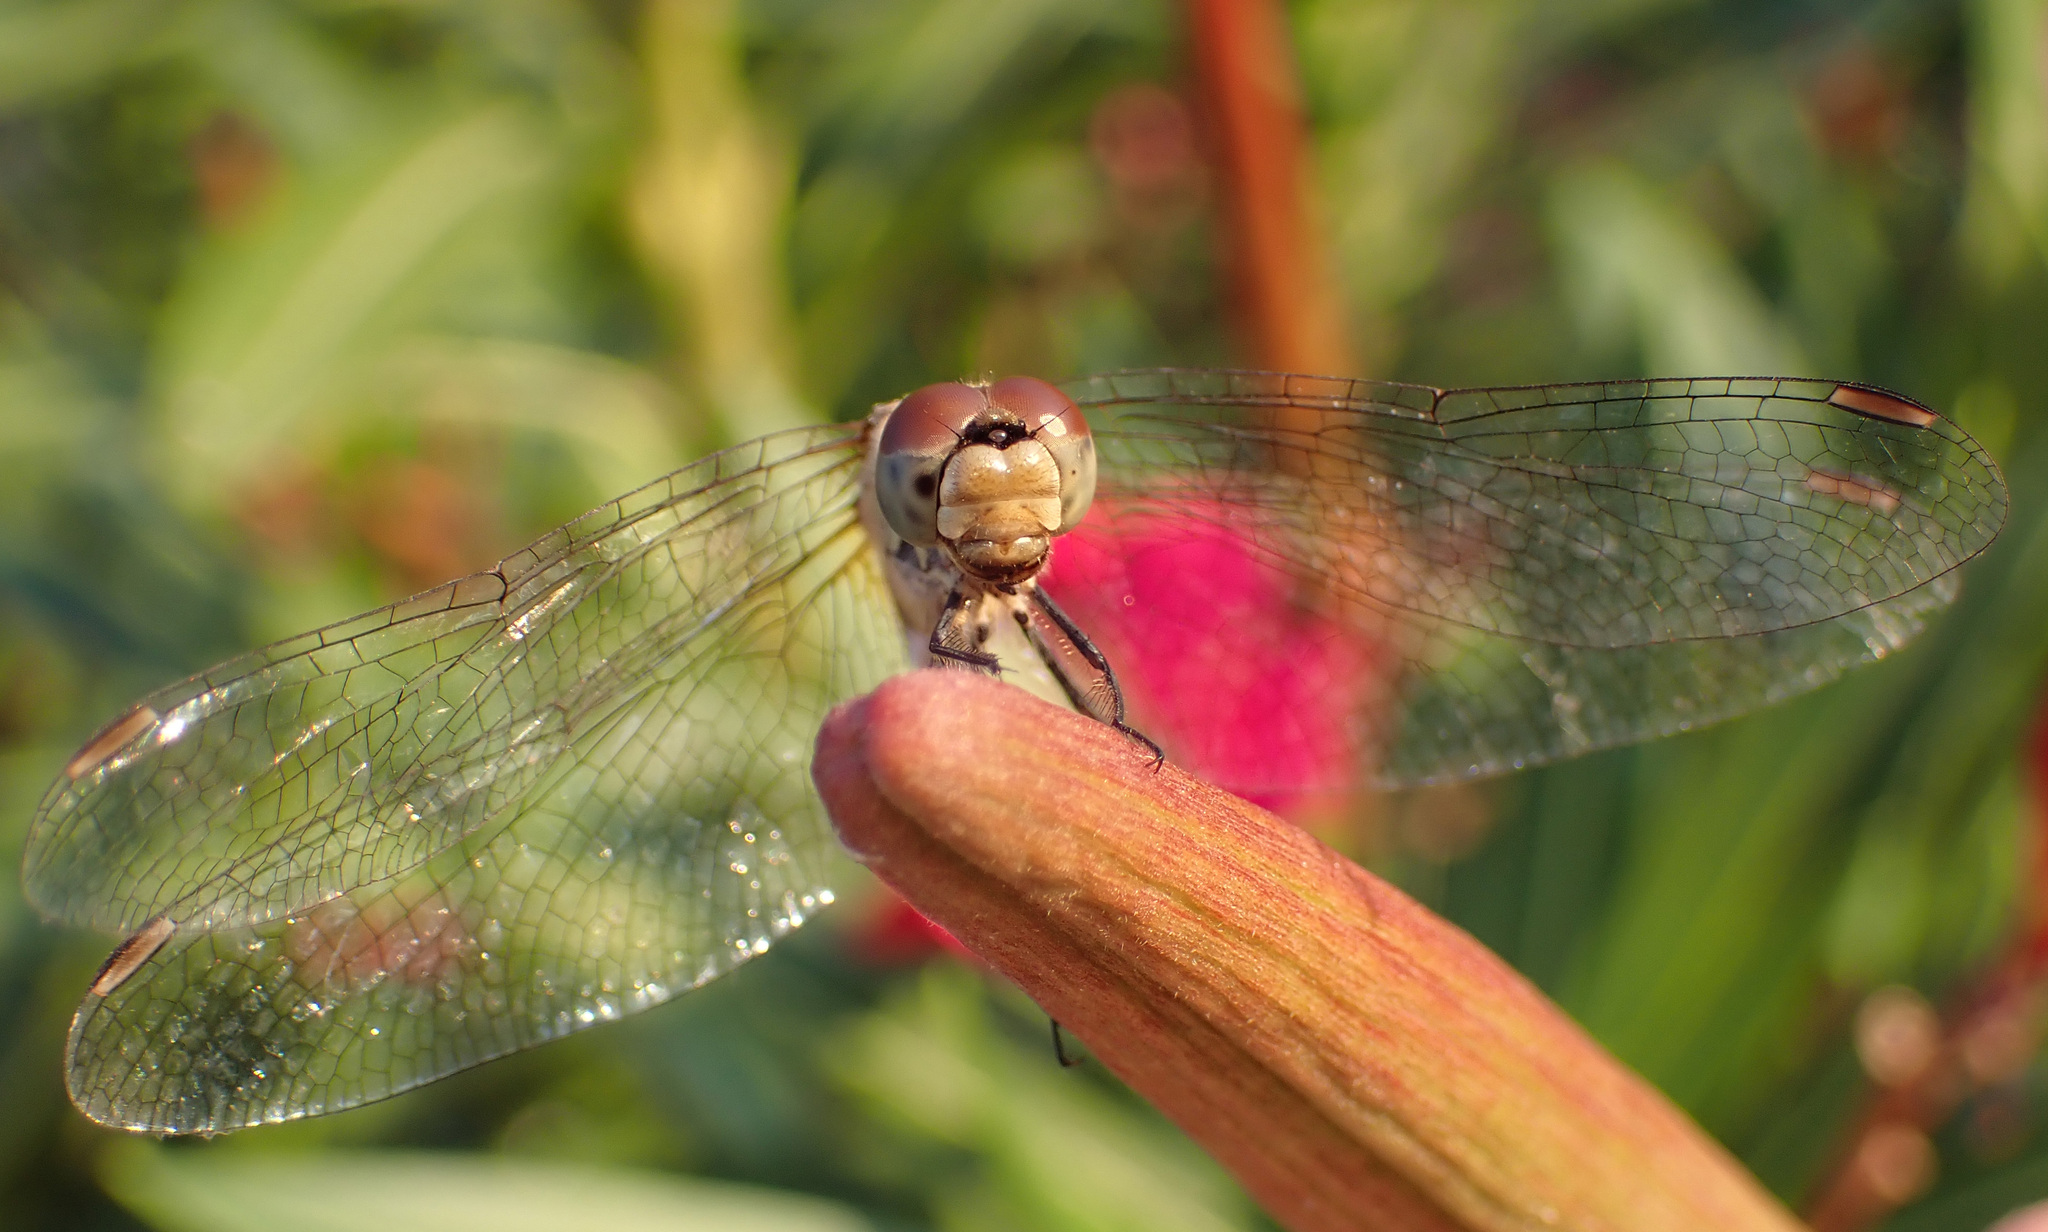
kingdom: Animalia
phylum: Arthropoda
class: Insecta
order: Odonata
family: Libellulidae
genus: Sympetrum
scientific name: Sympetrum sanguineum
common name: Ruddy darter
